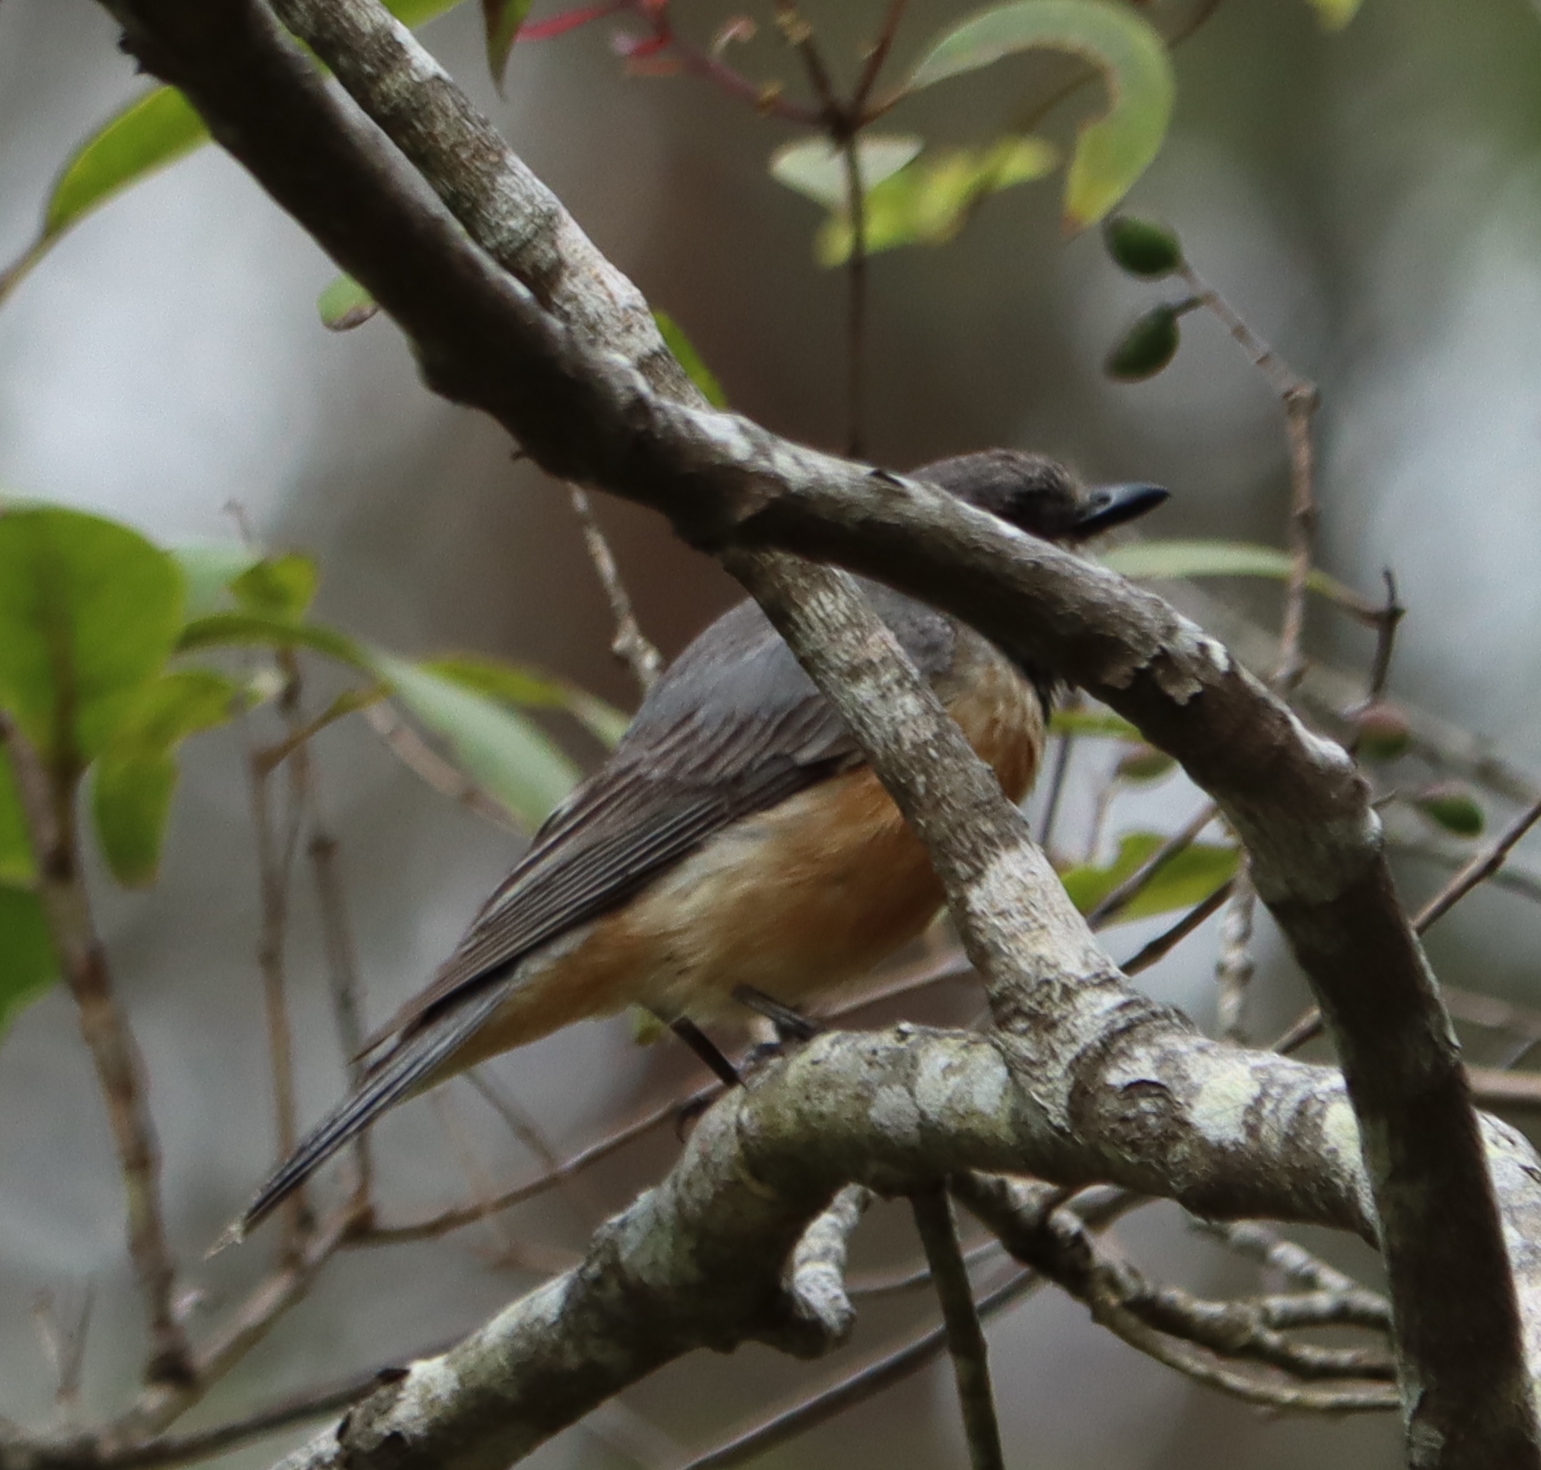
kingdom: Animalia
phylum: Chordata
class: Aves
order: Passeriformes
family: Pachycephalidae
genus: Pachycephala
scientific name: Pachycephala rufiventris
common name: Rufous whistler
